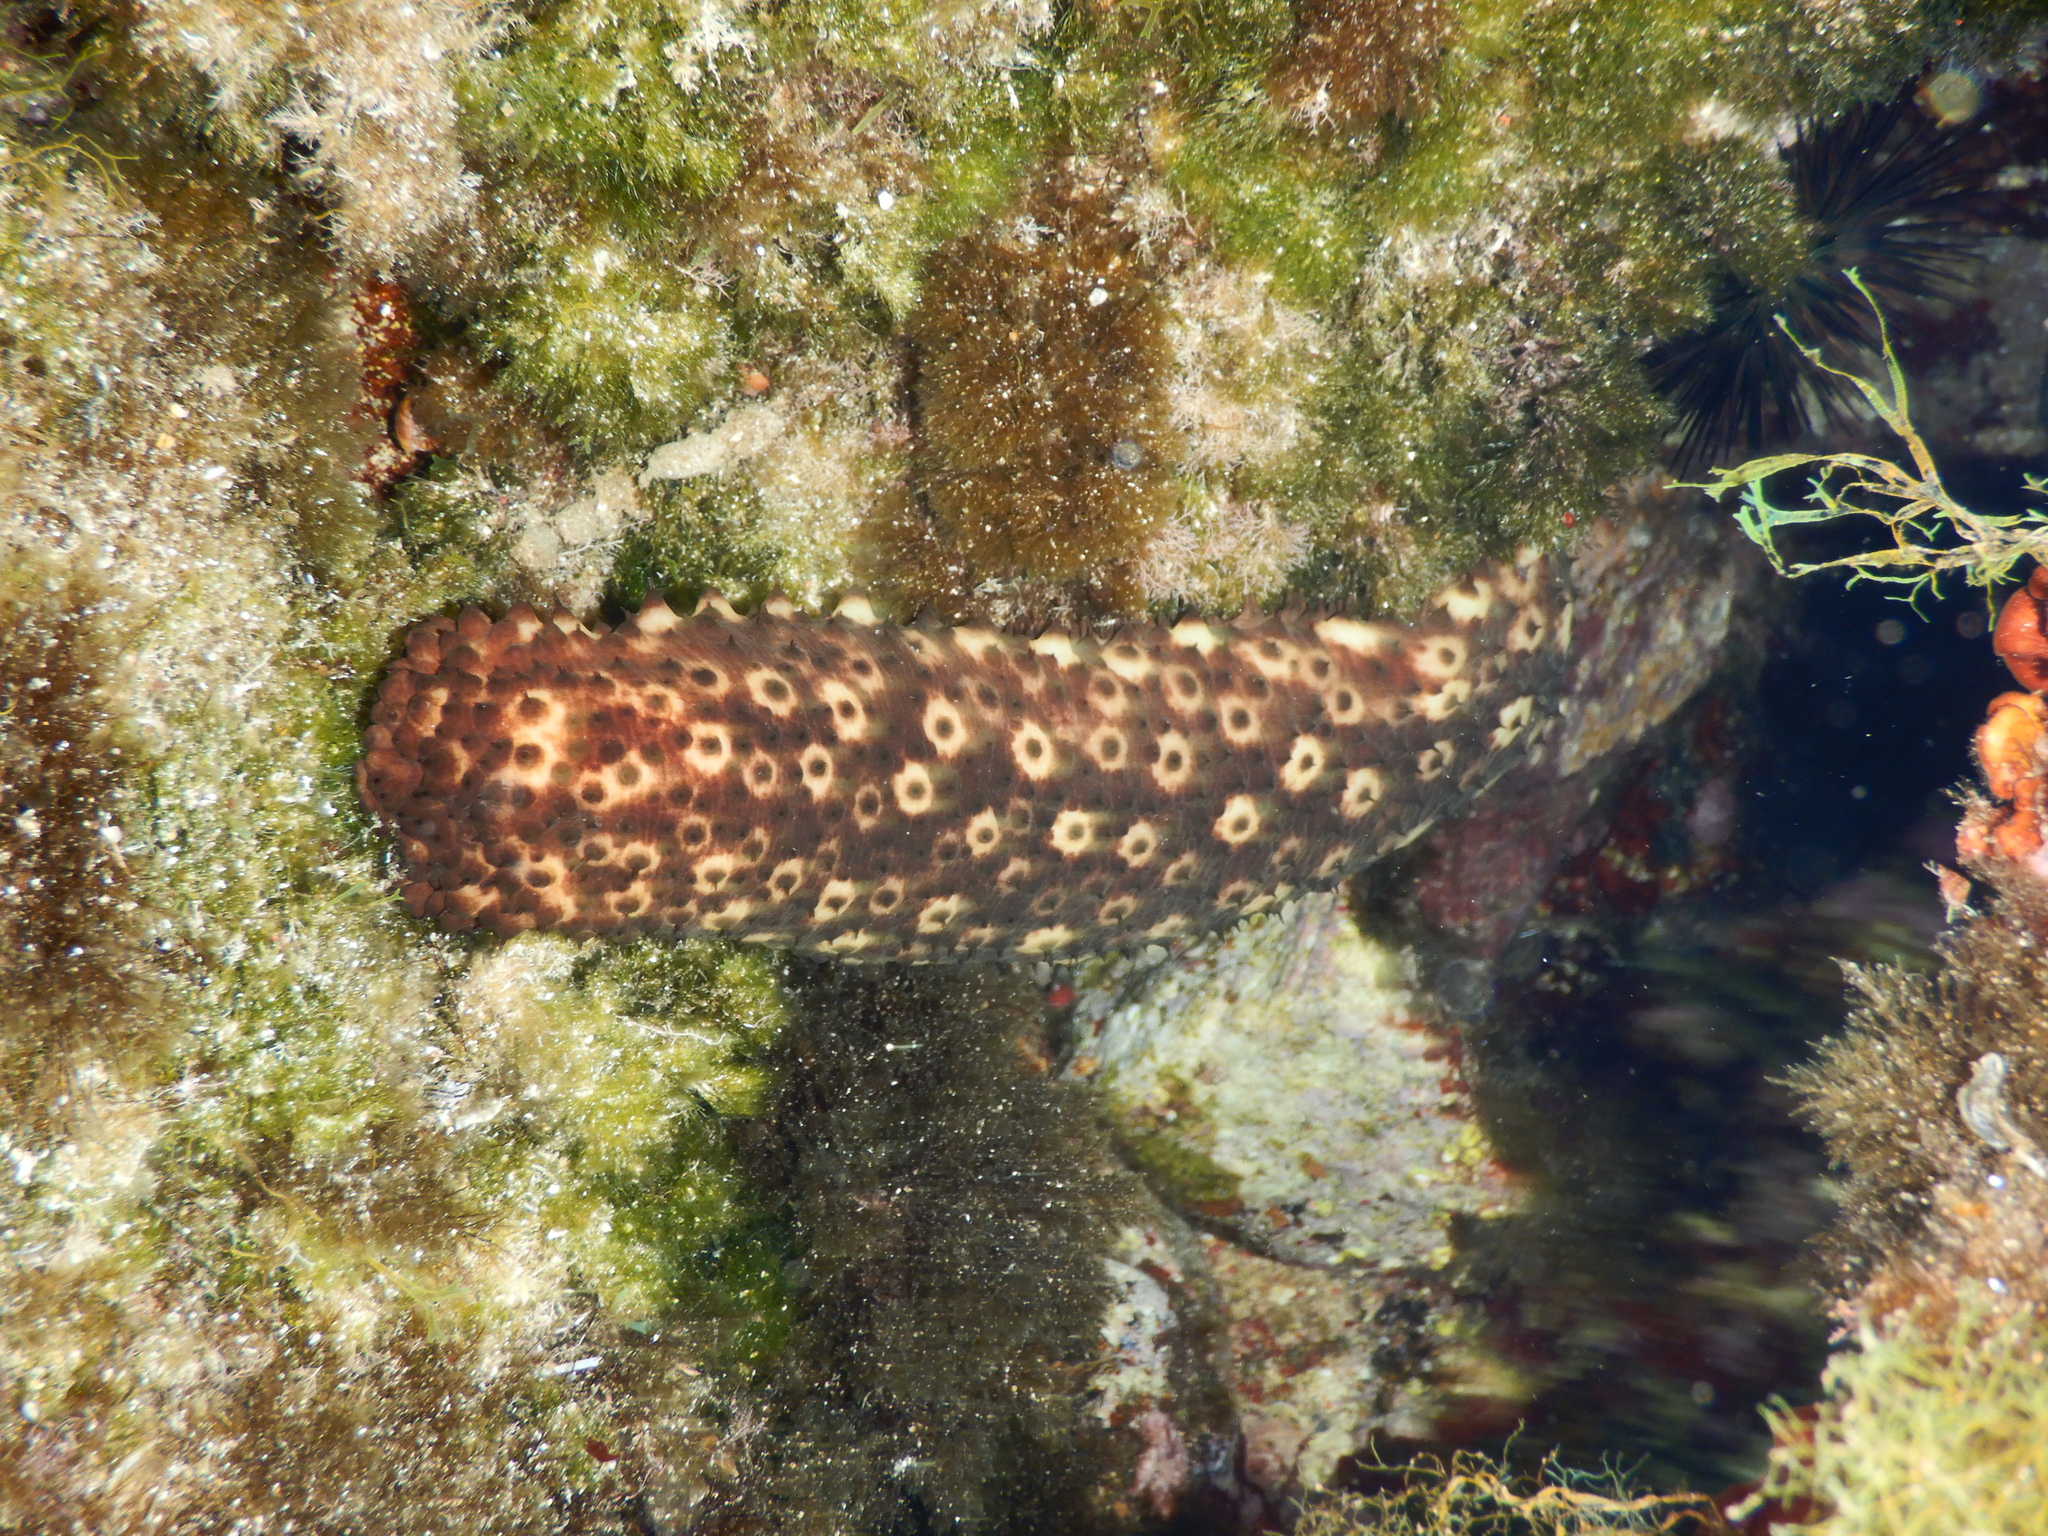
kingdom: Animalia
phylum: Echinodermata
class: Holothuroidea
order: Holothuriida
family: Holothuriidae
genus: Holothuria
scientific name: Holothuria sanctori
